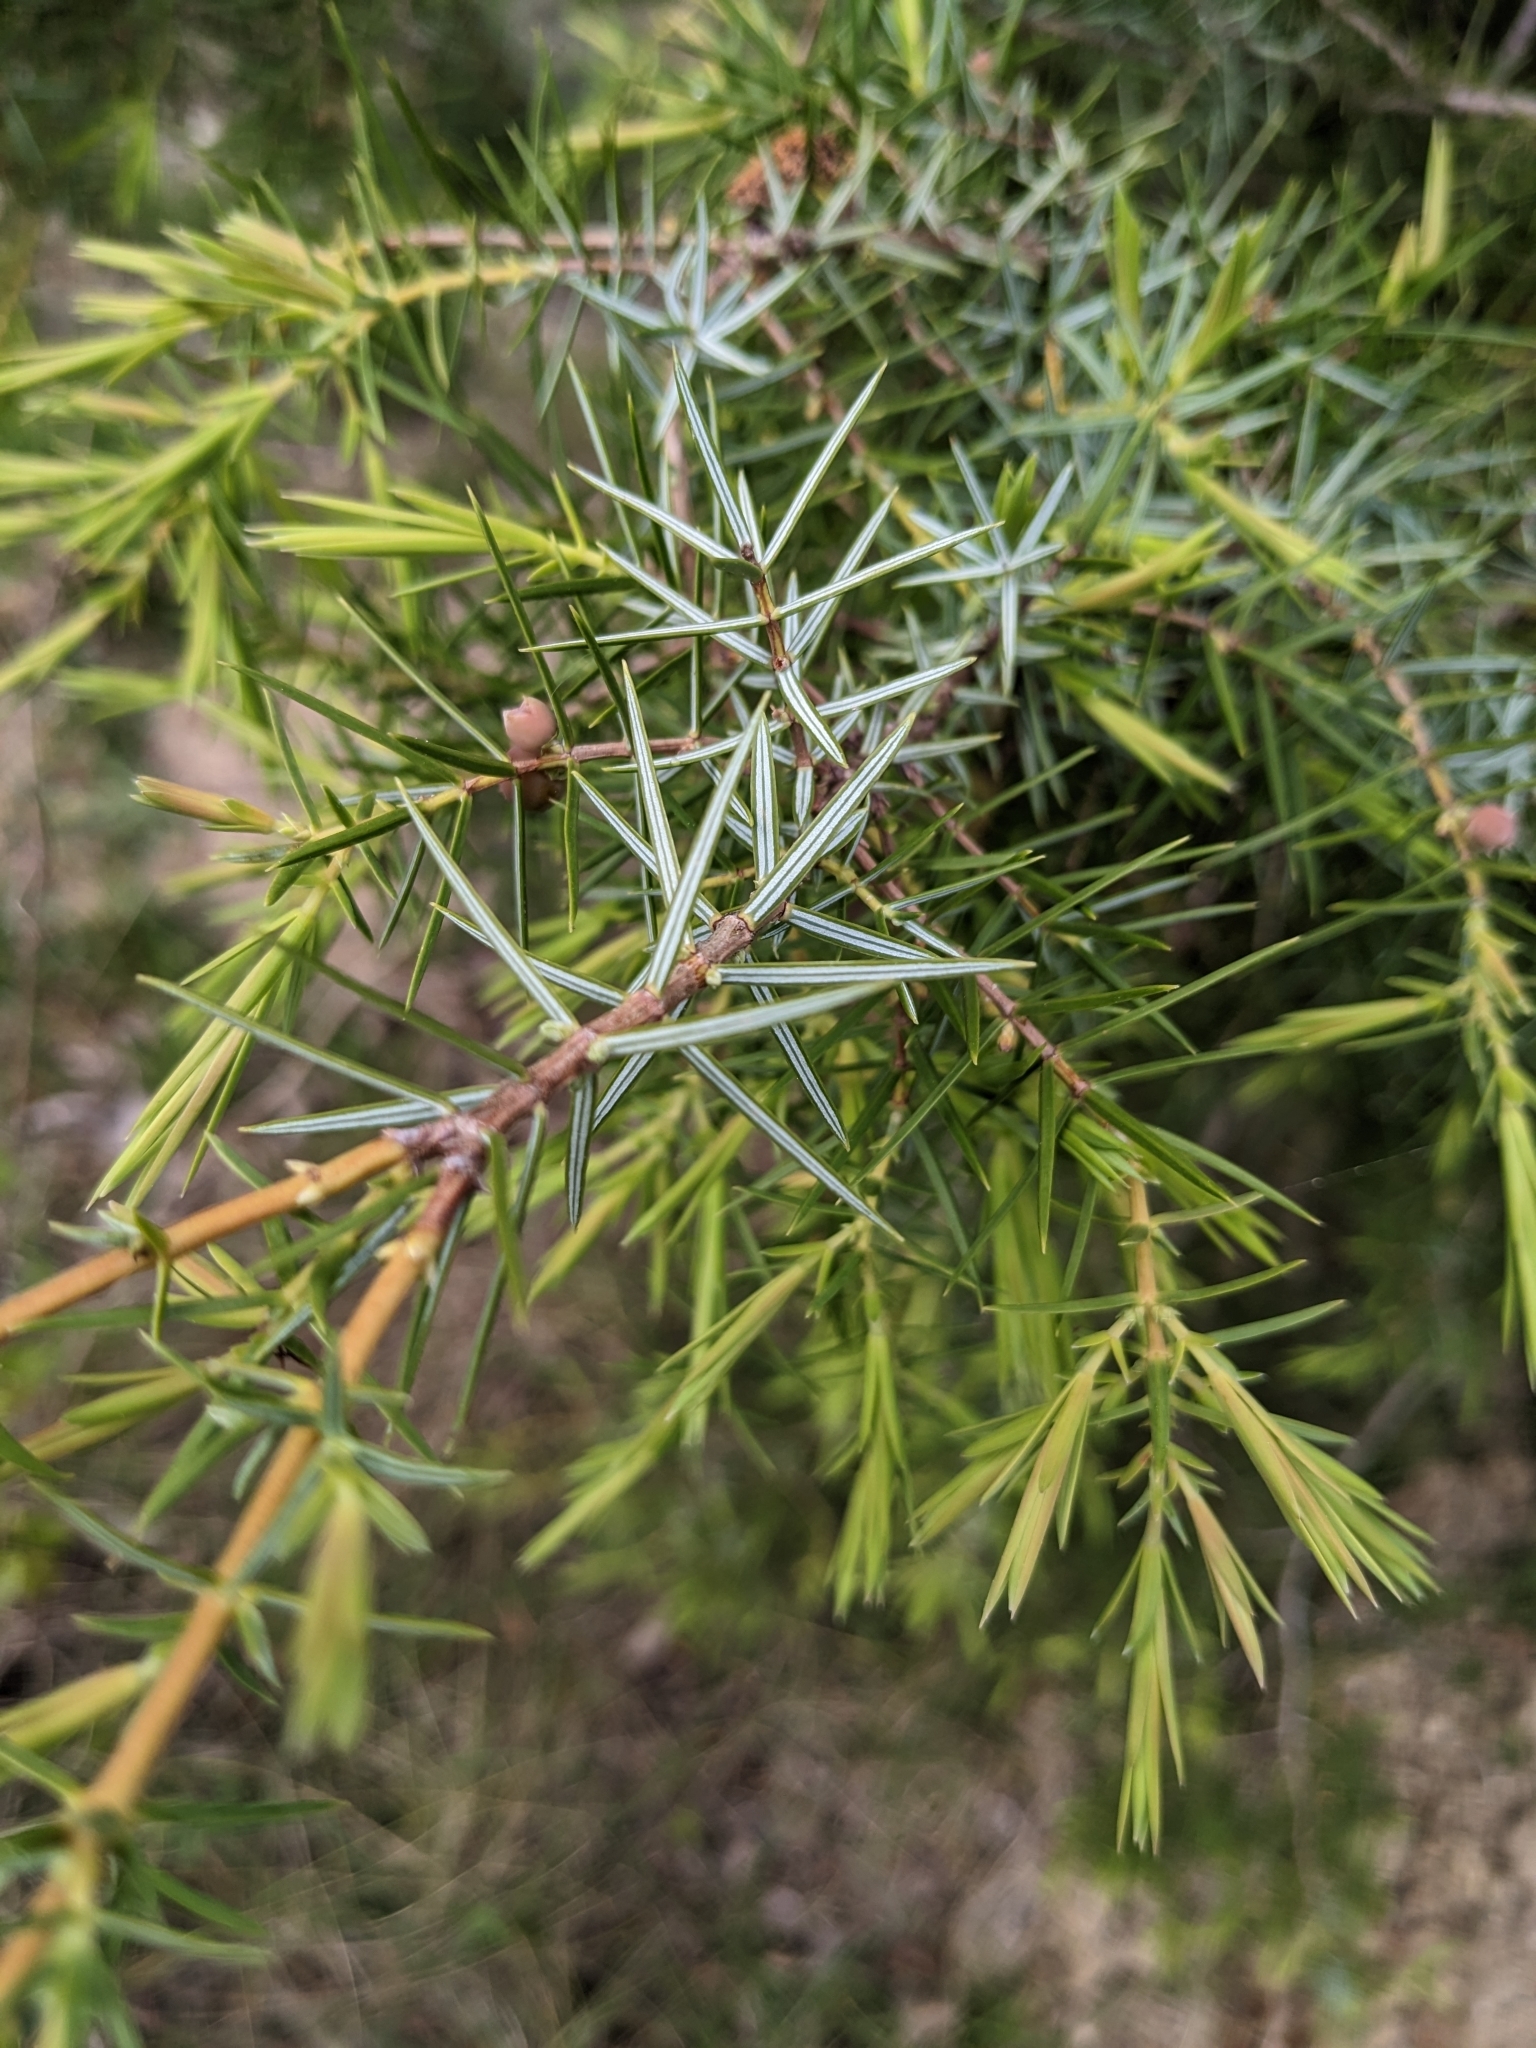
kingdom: Plantae
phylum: Tracheophyta
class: Pinopsida
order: Pinales
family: Cupressaceae
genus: Juniperus
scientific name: Juniperus oxycedrus
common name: Prickly juniper
